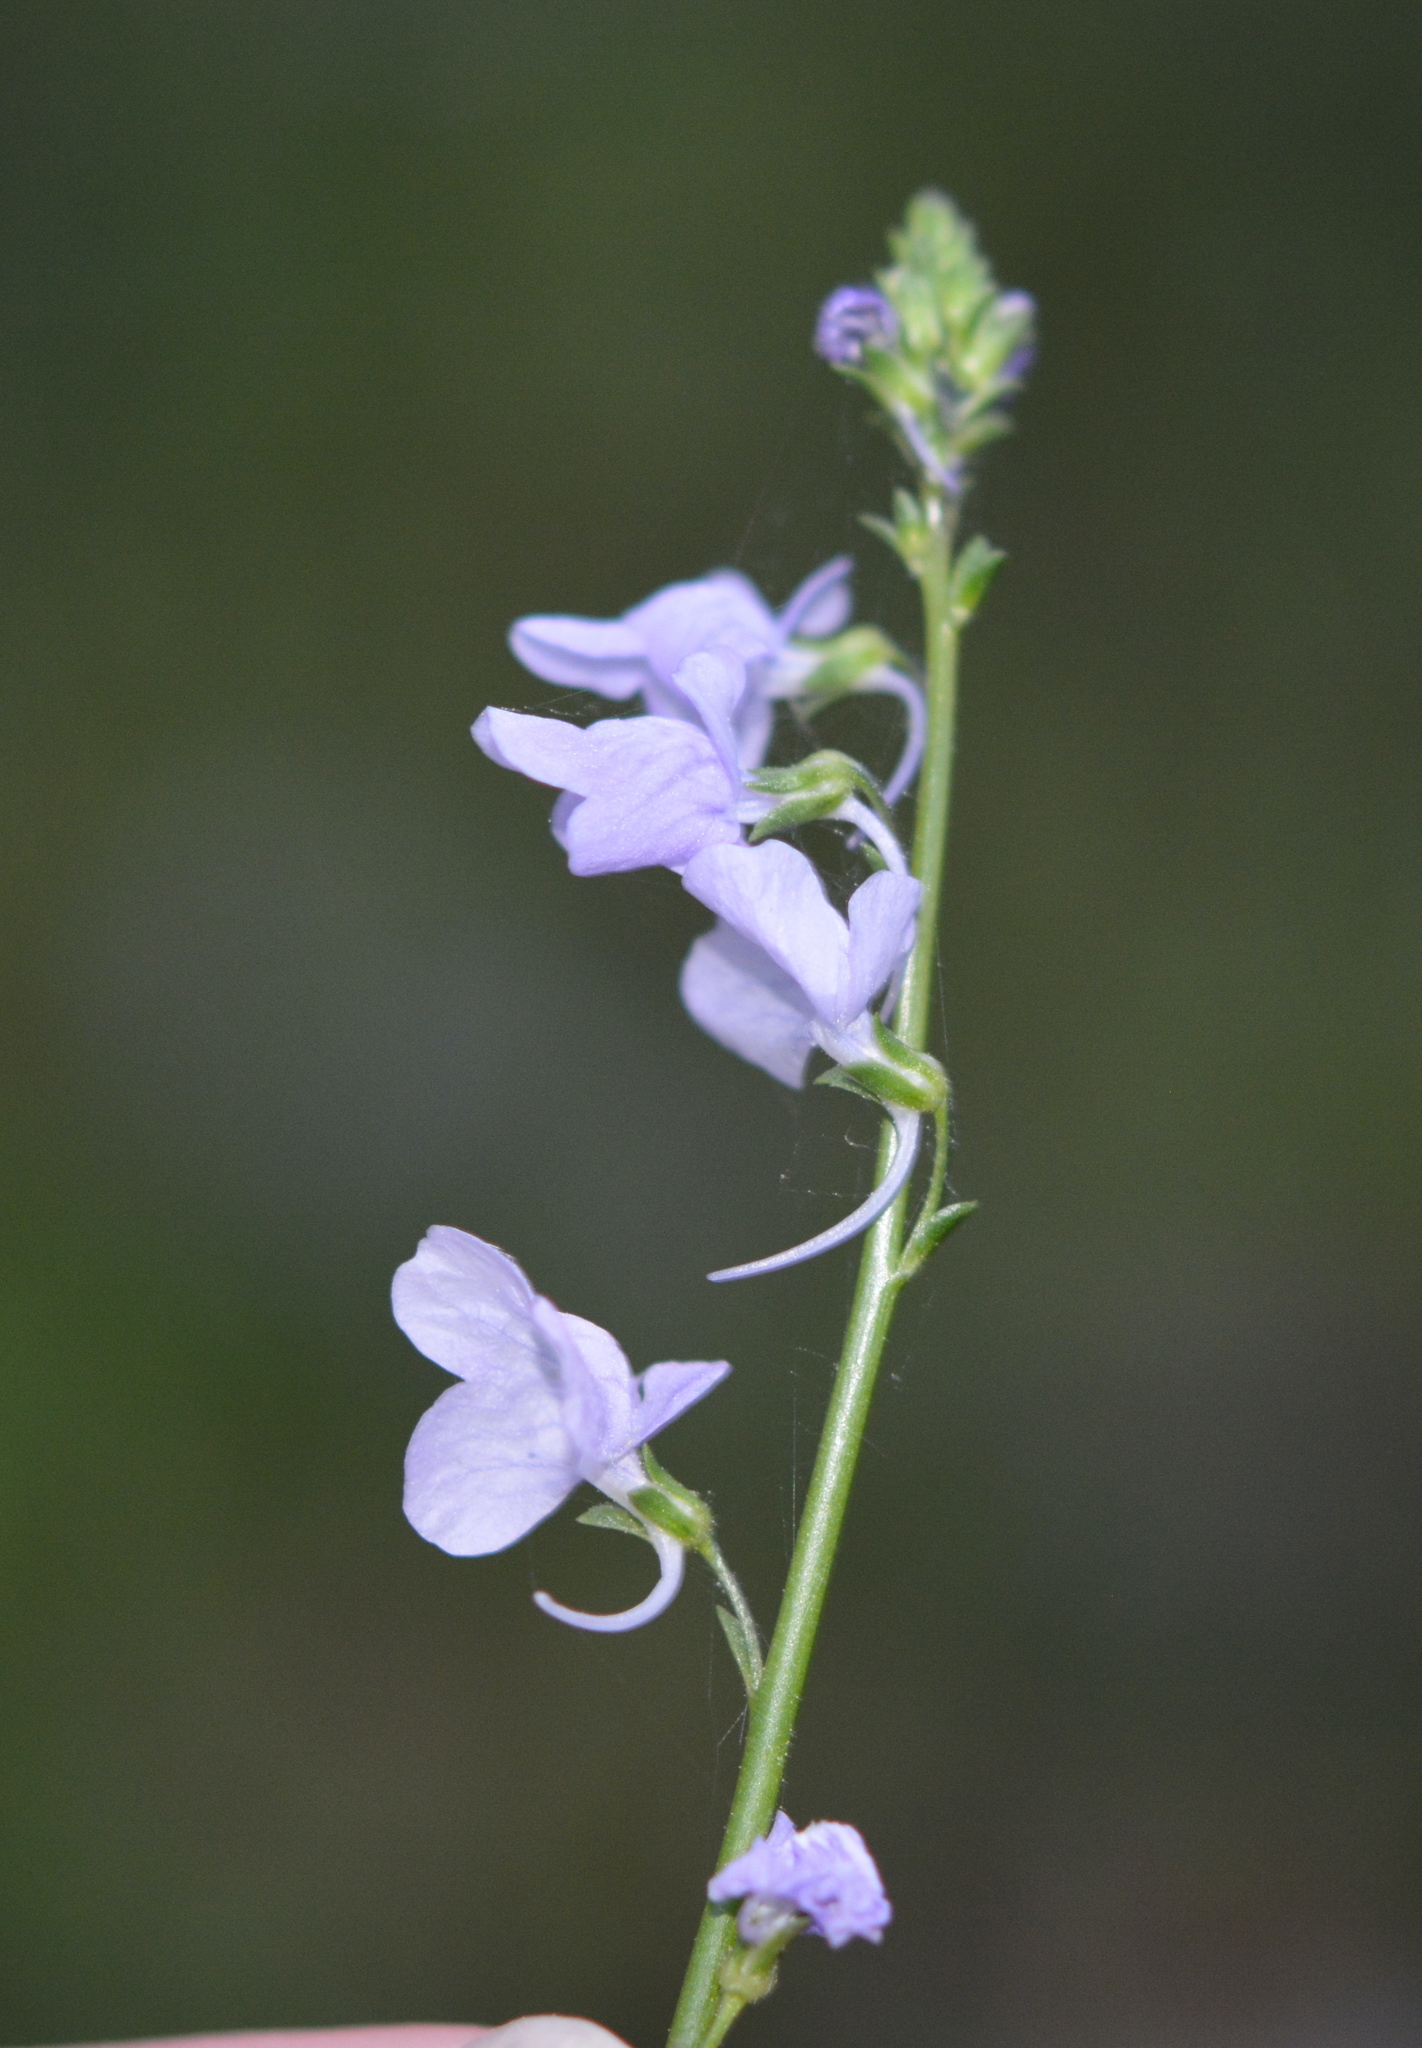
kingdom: Plantae
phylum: Tracheophyta
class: Magnoliopsida
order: Lamiales
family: Plantaginaceae
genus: Nuttallanthus
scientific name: Nuttallanthus texanus
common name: Texas toadflax
